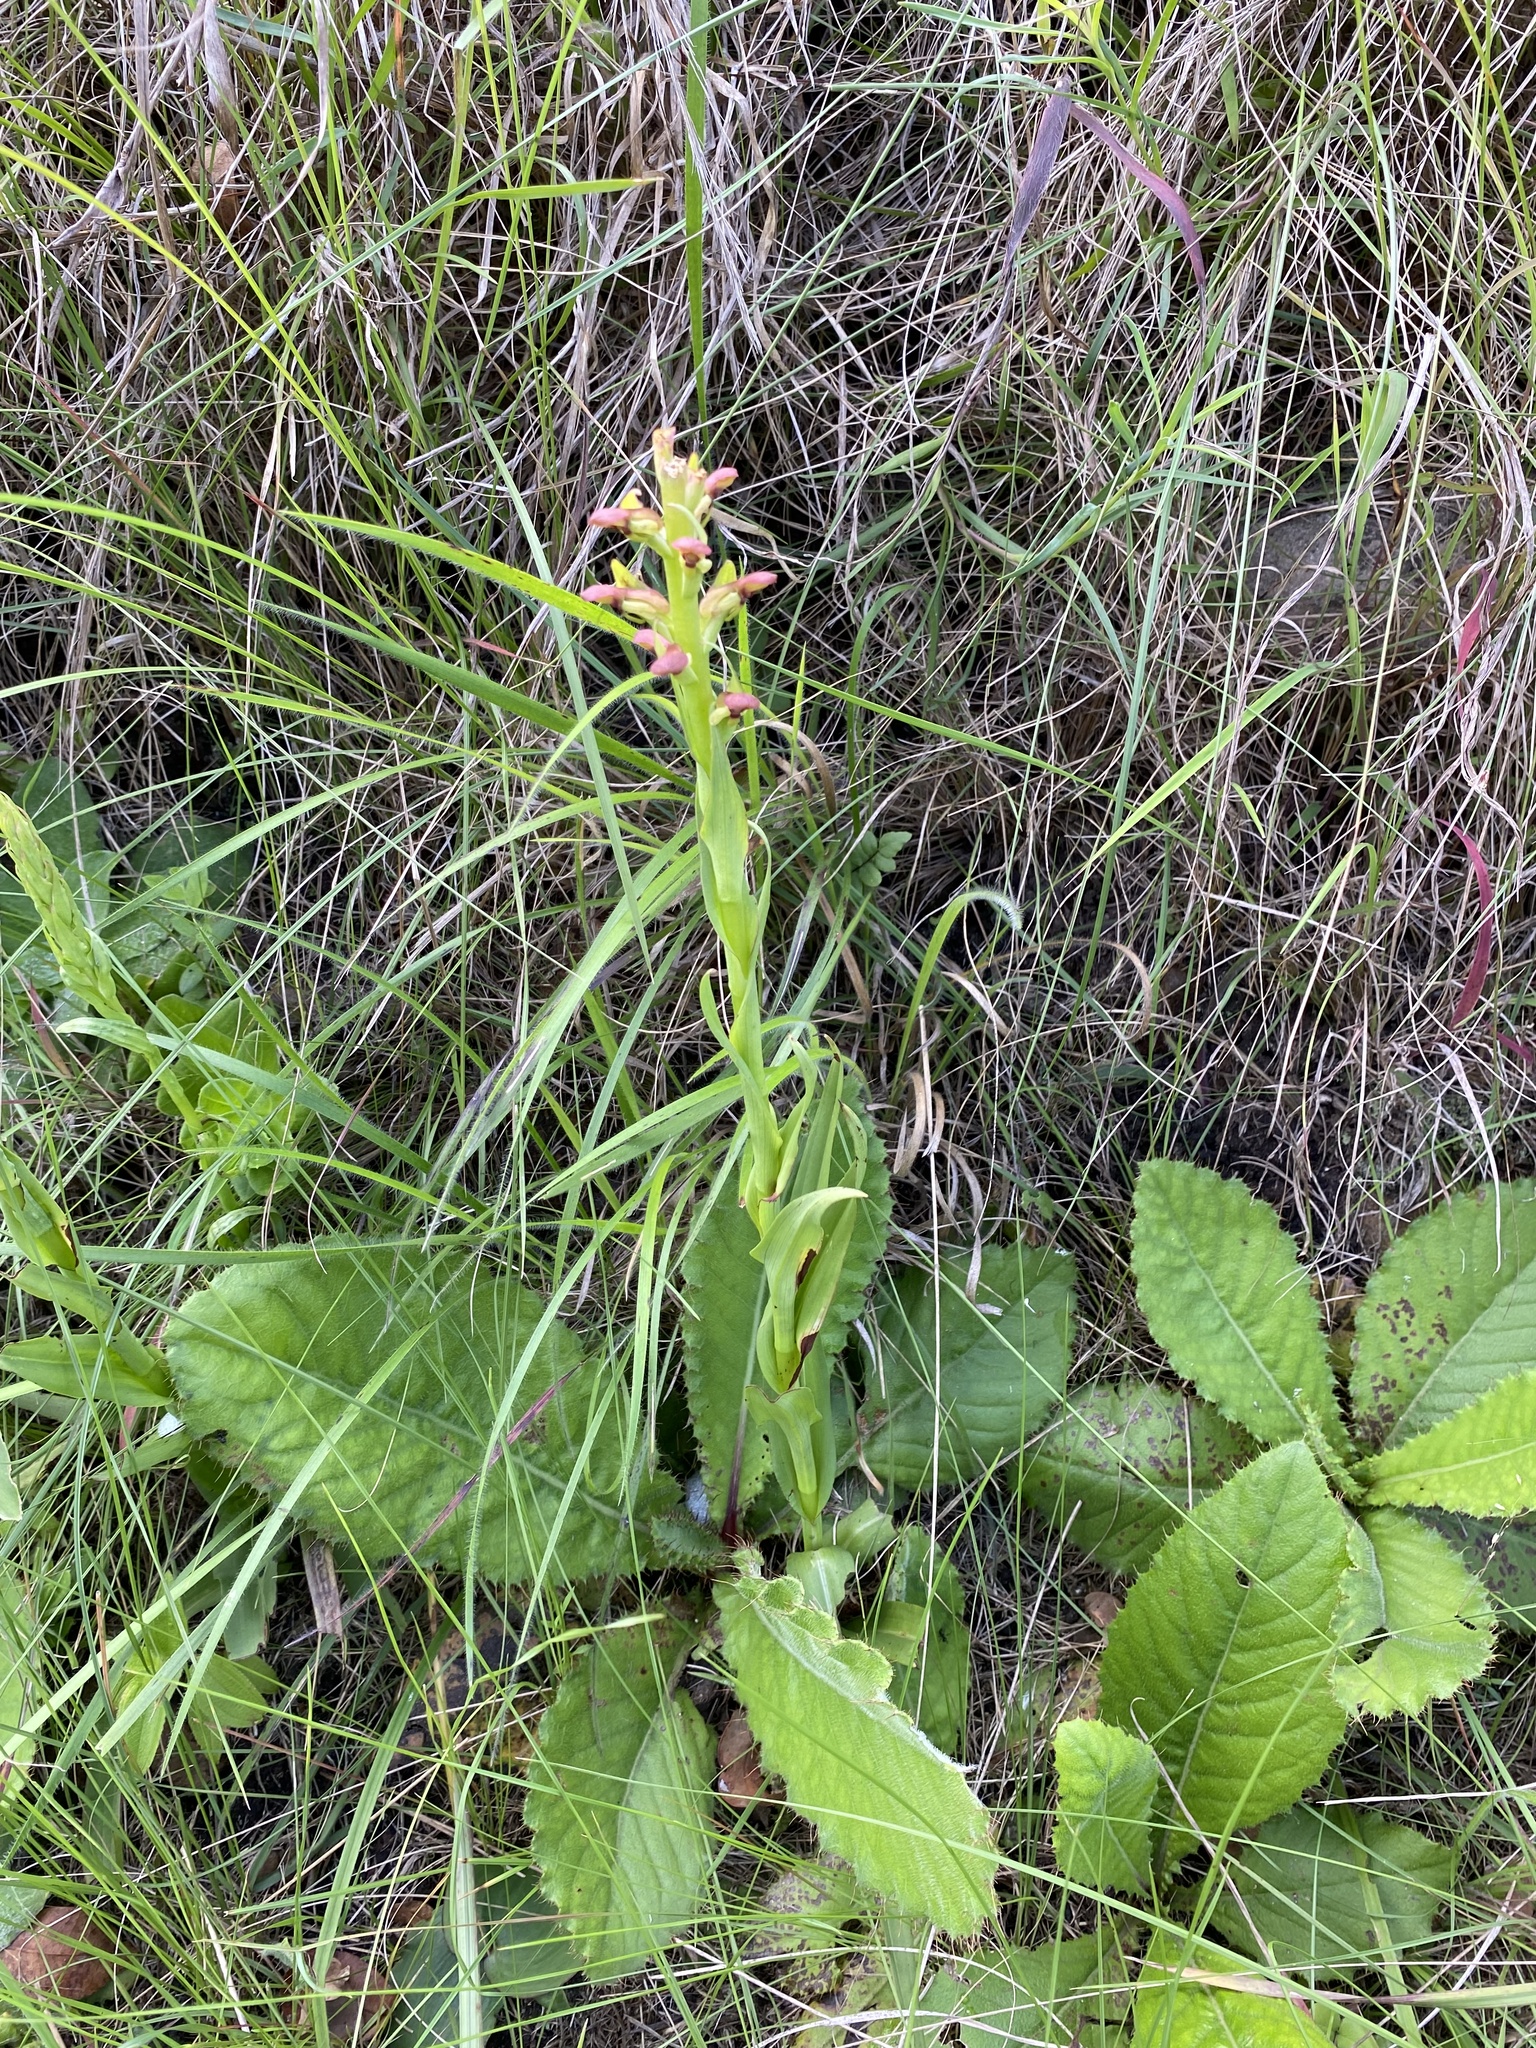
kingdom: Plantae
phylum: Tracheophyta
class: Liliopsida
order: Asparagales
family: Orchidaceae
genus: Disa
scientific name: Disa brevicornis
